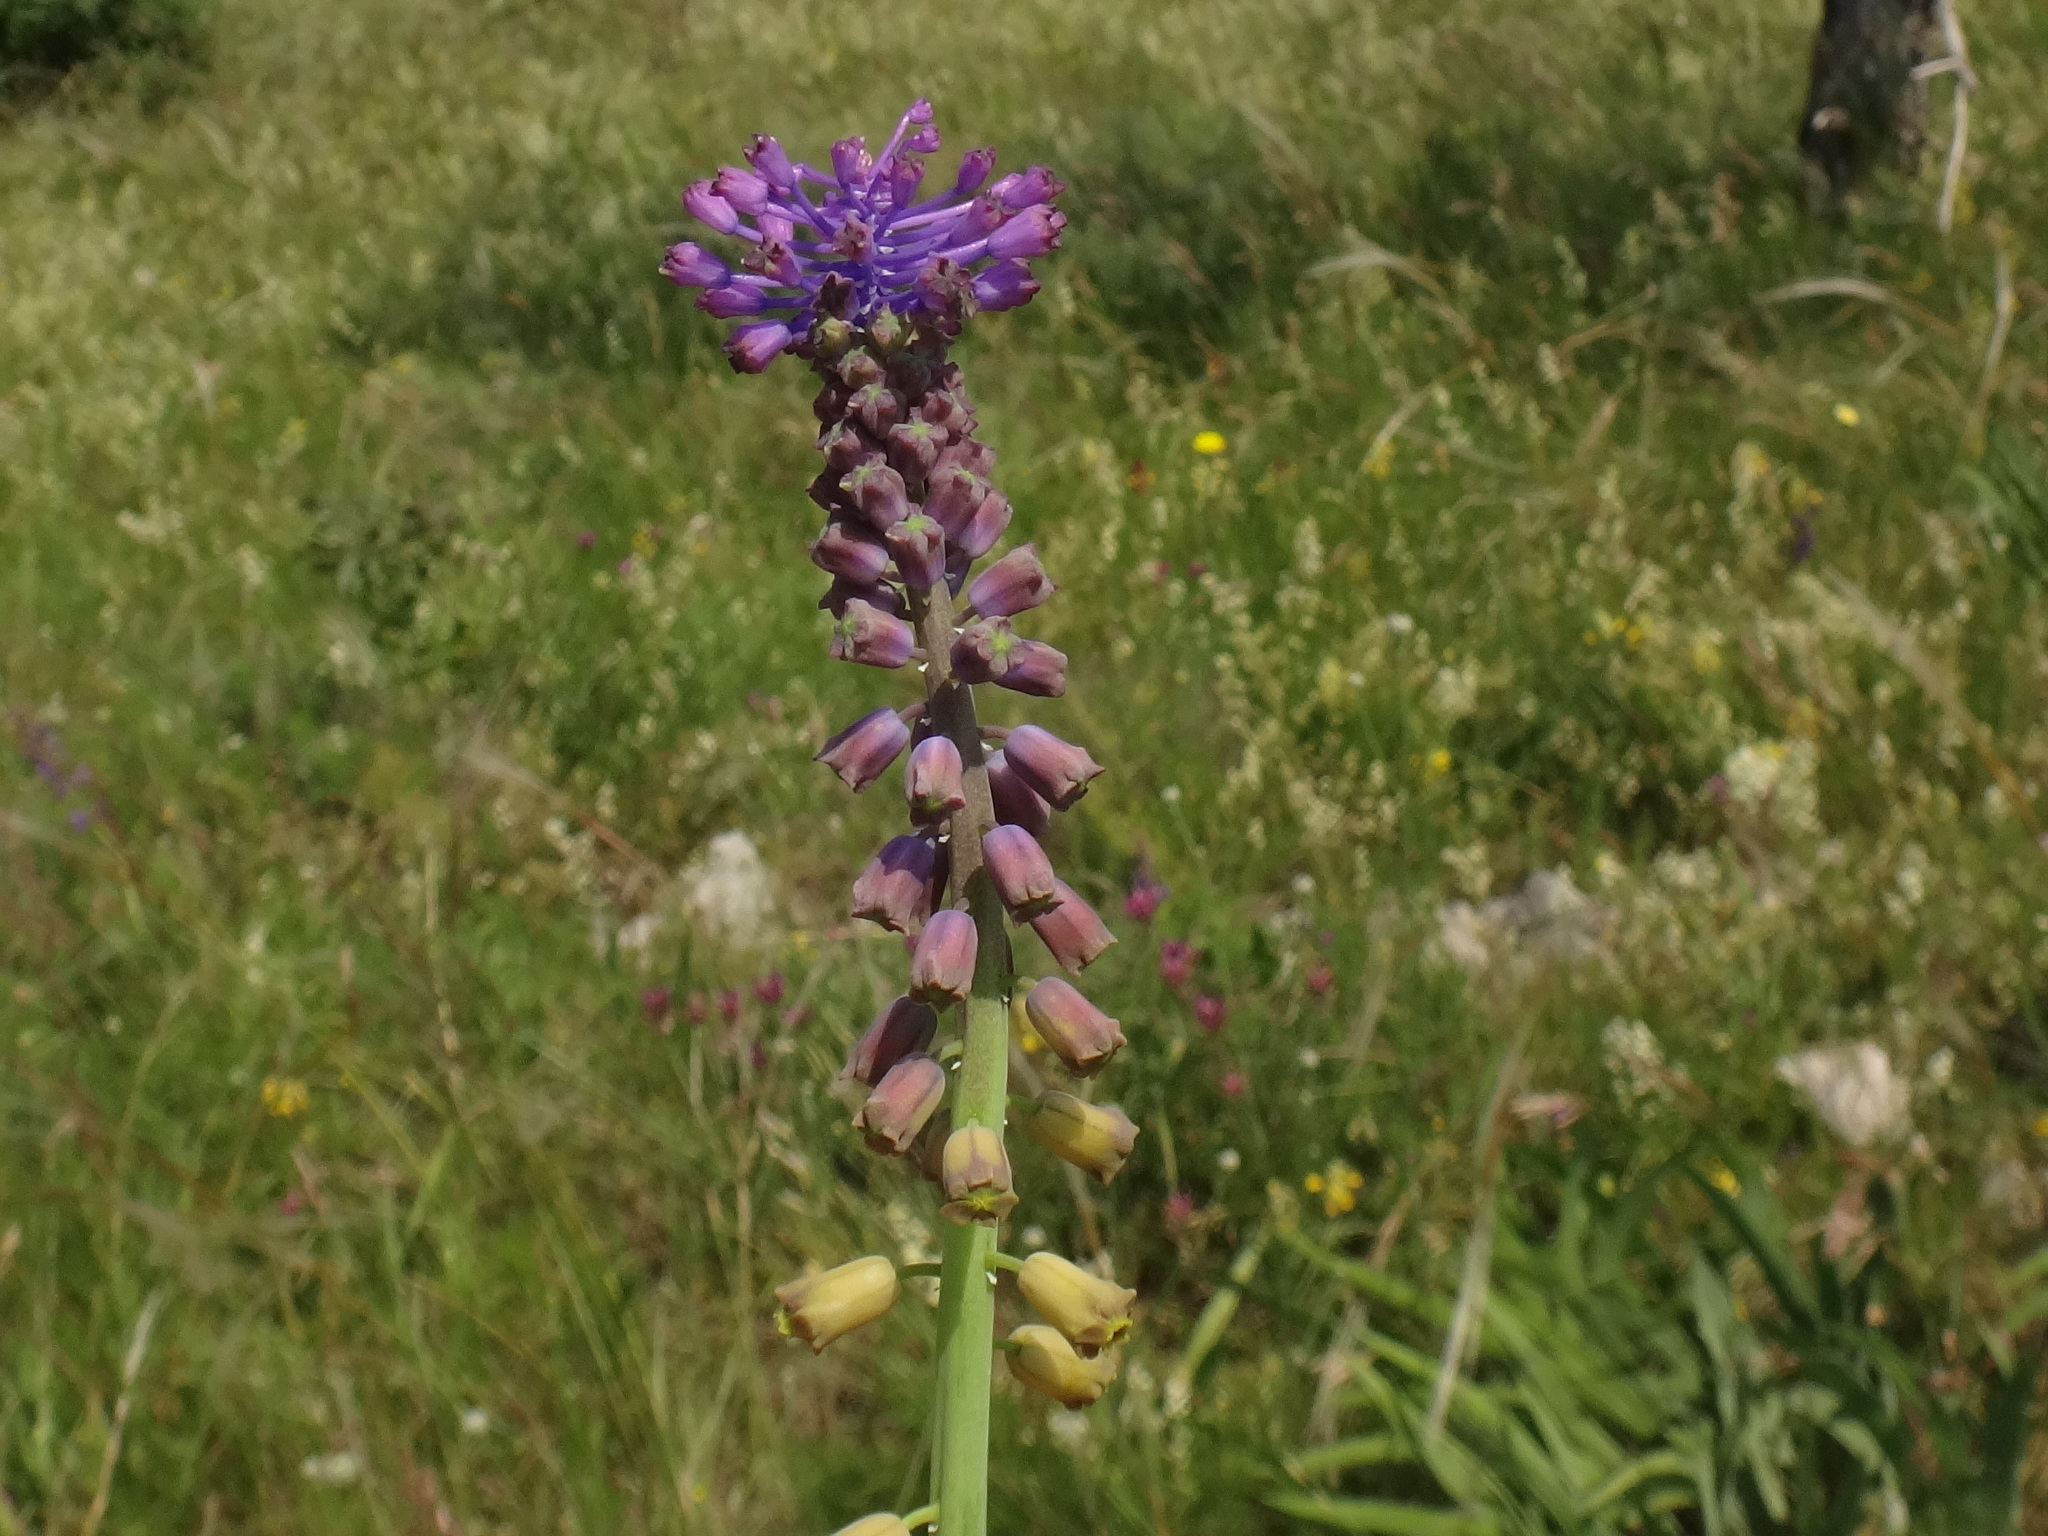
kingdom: Plantae
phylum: Tracheophyta
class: Liliopsida
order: Asparagales
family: Asparagaceae
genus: Muscari
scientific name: Muscari comosum
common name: Tassel hyacinth
